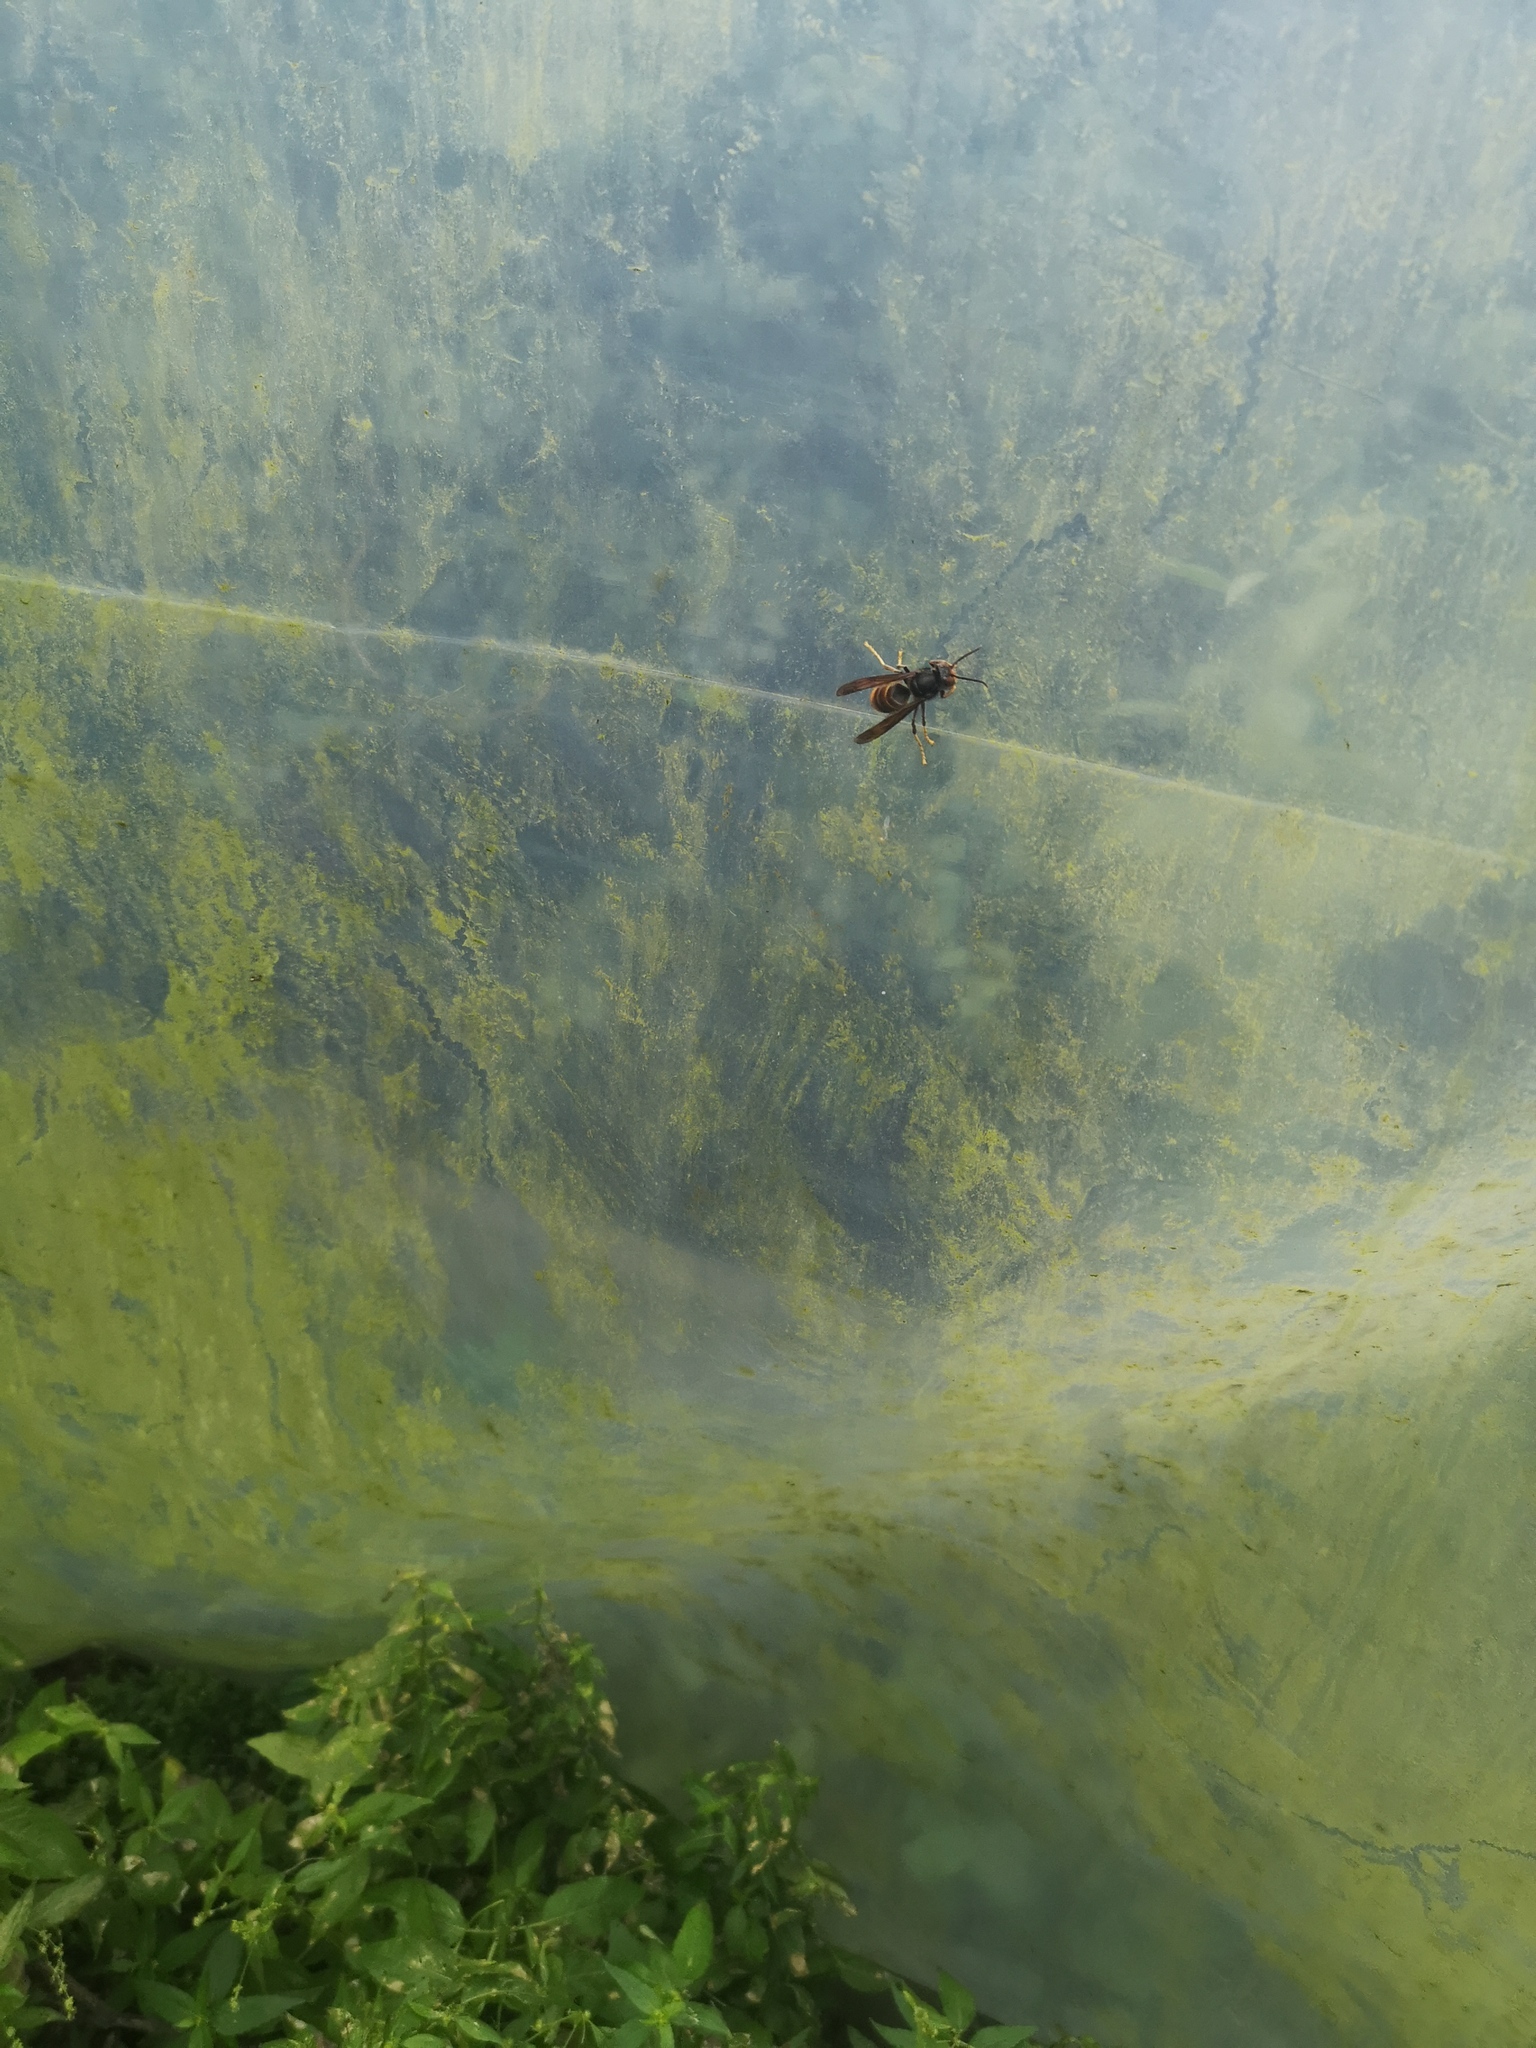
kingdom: Animalia
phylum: Arthropoda
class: Insecta
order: Hymenoptera
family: Vespidae
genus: Vespa
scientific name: Vespa velutina
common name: Asian hornet
